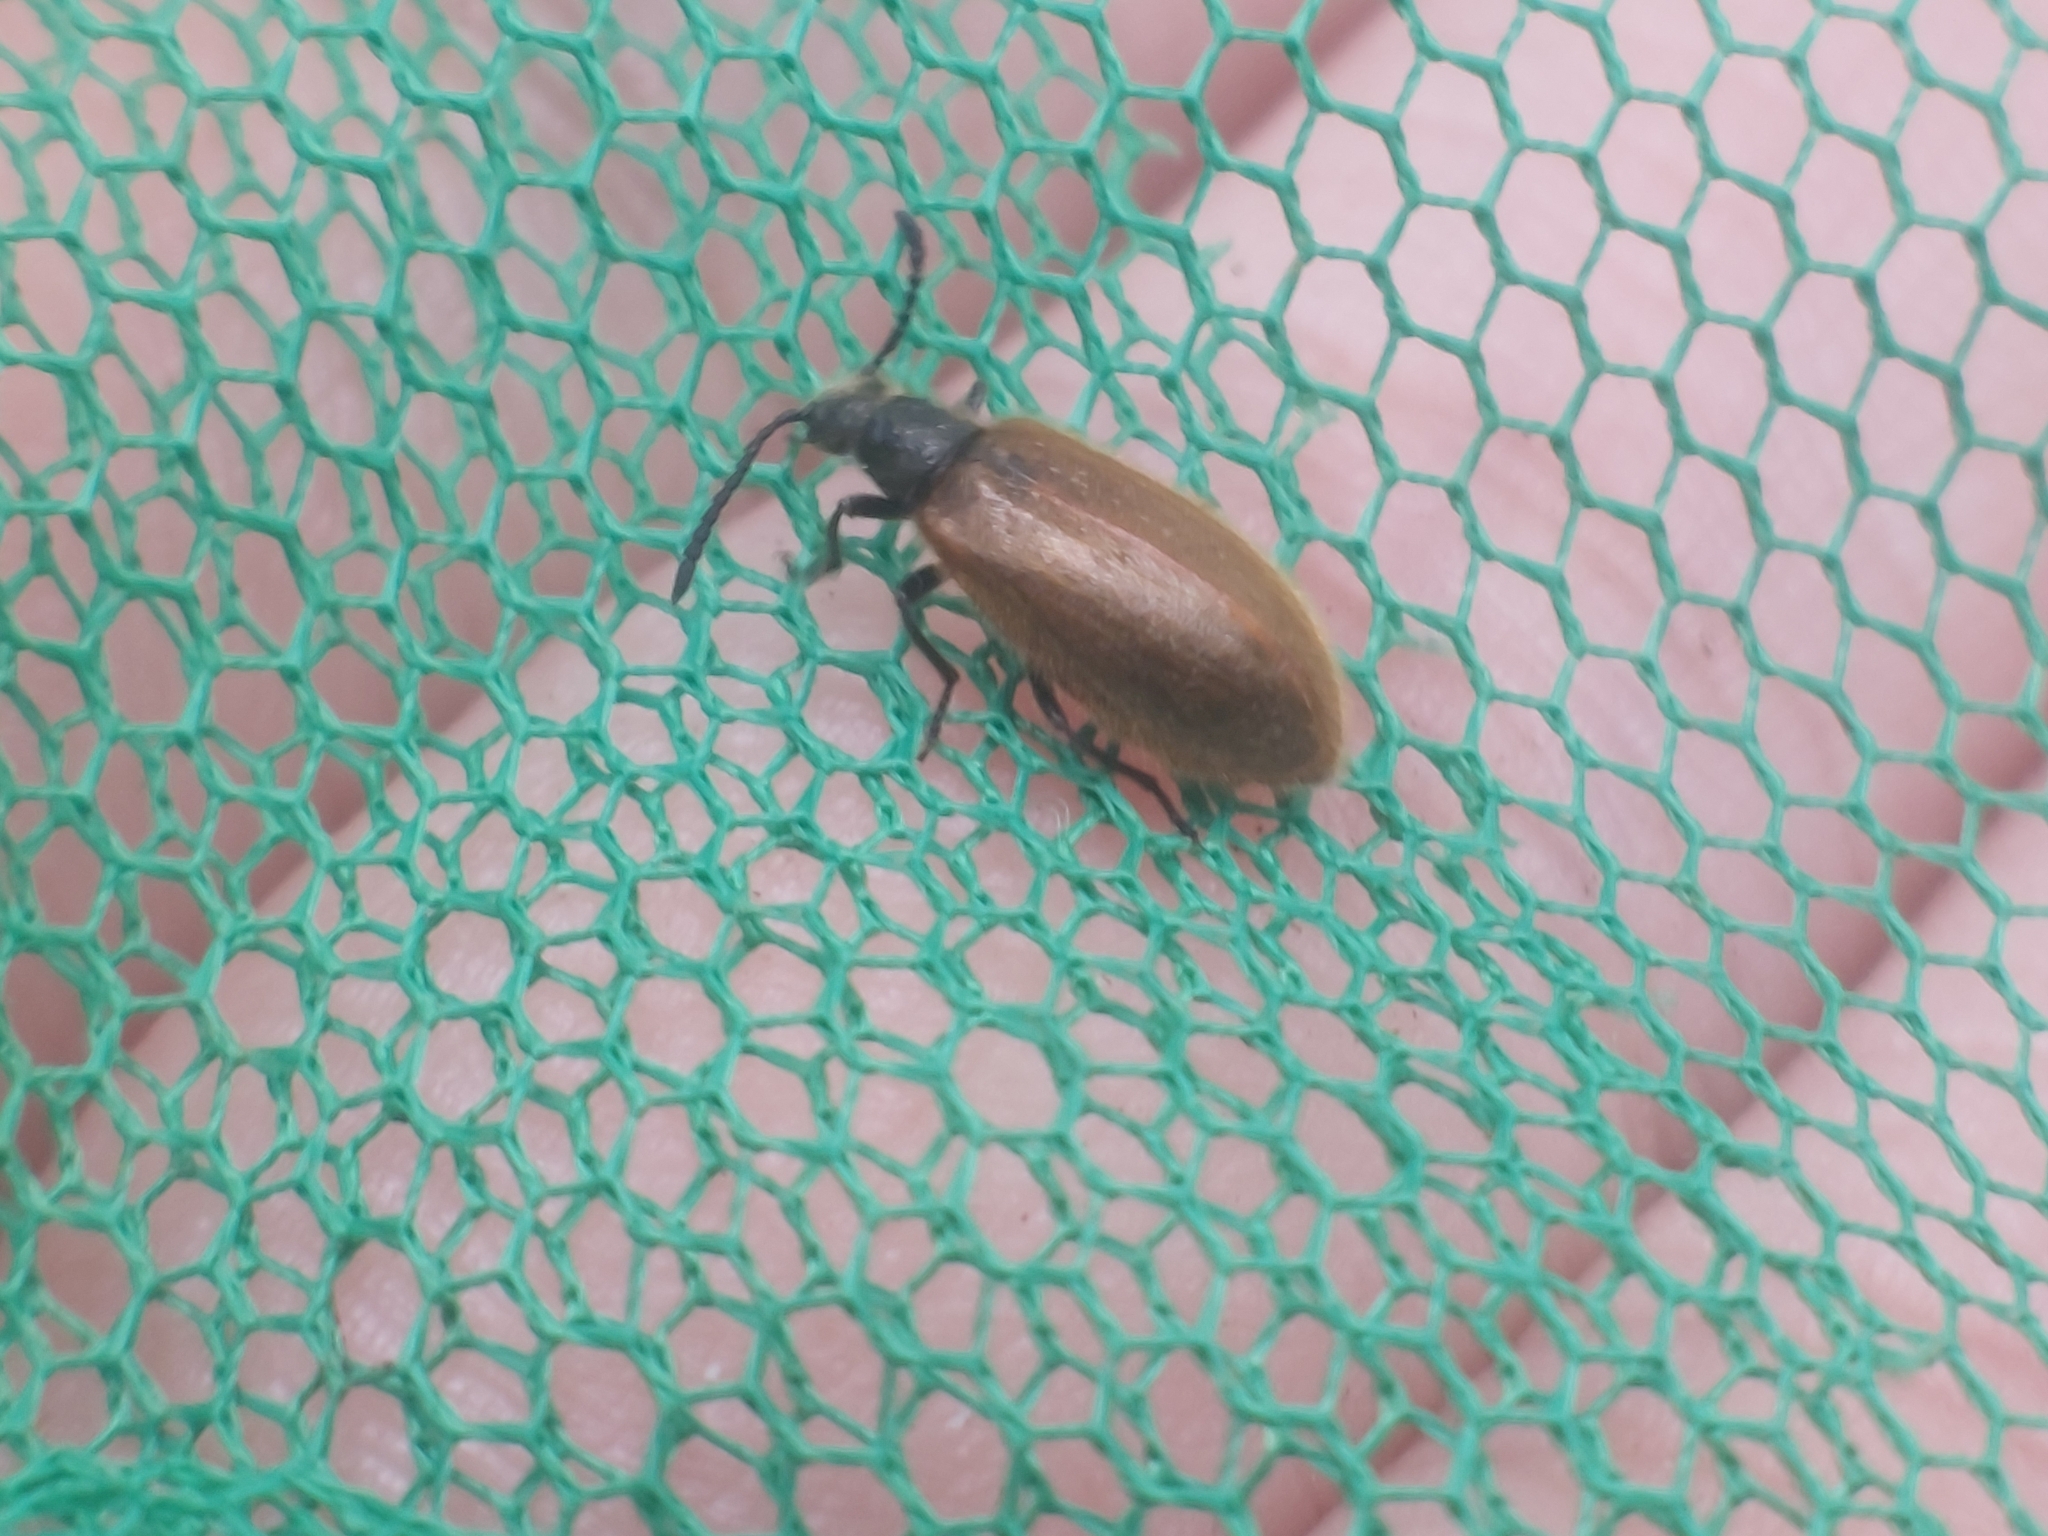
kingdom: Animalia
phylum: Arthropoda
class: Insecta
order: Coleoptera
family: Tenebrionidae
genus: Lagria
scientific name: Lagria hirta
